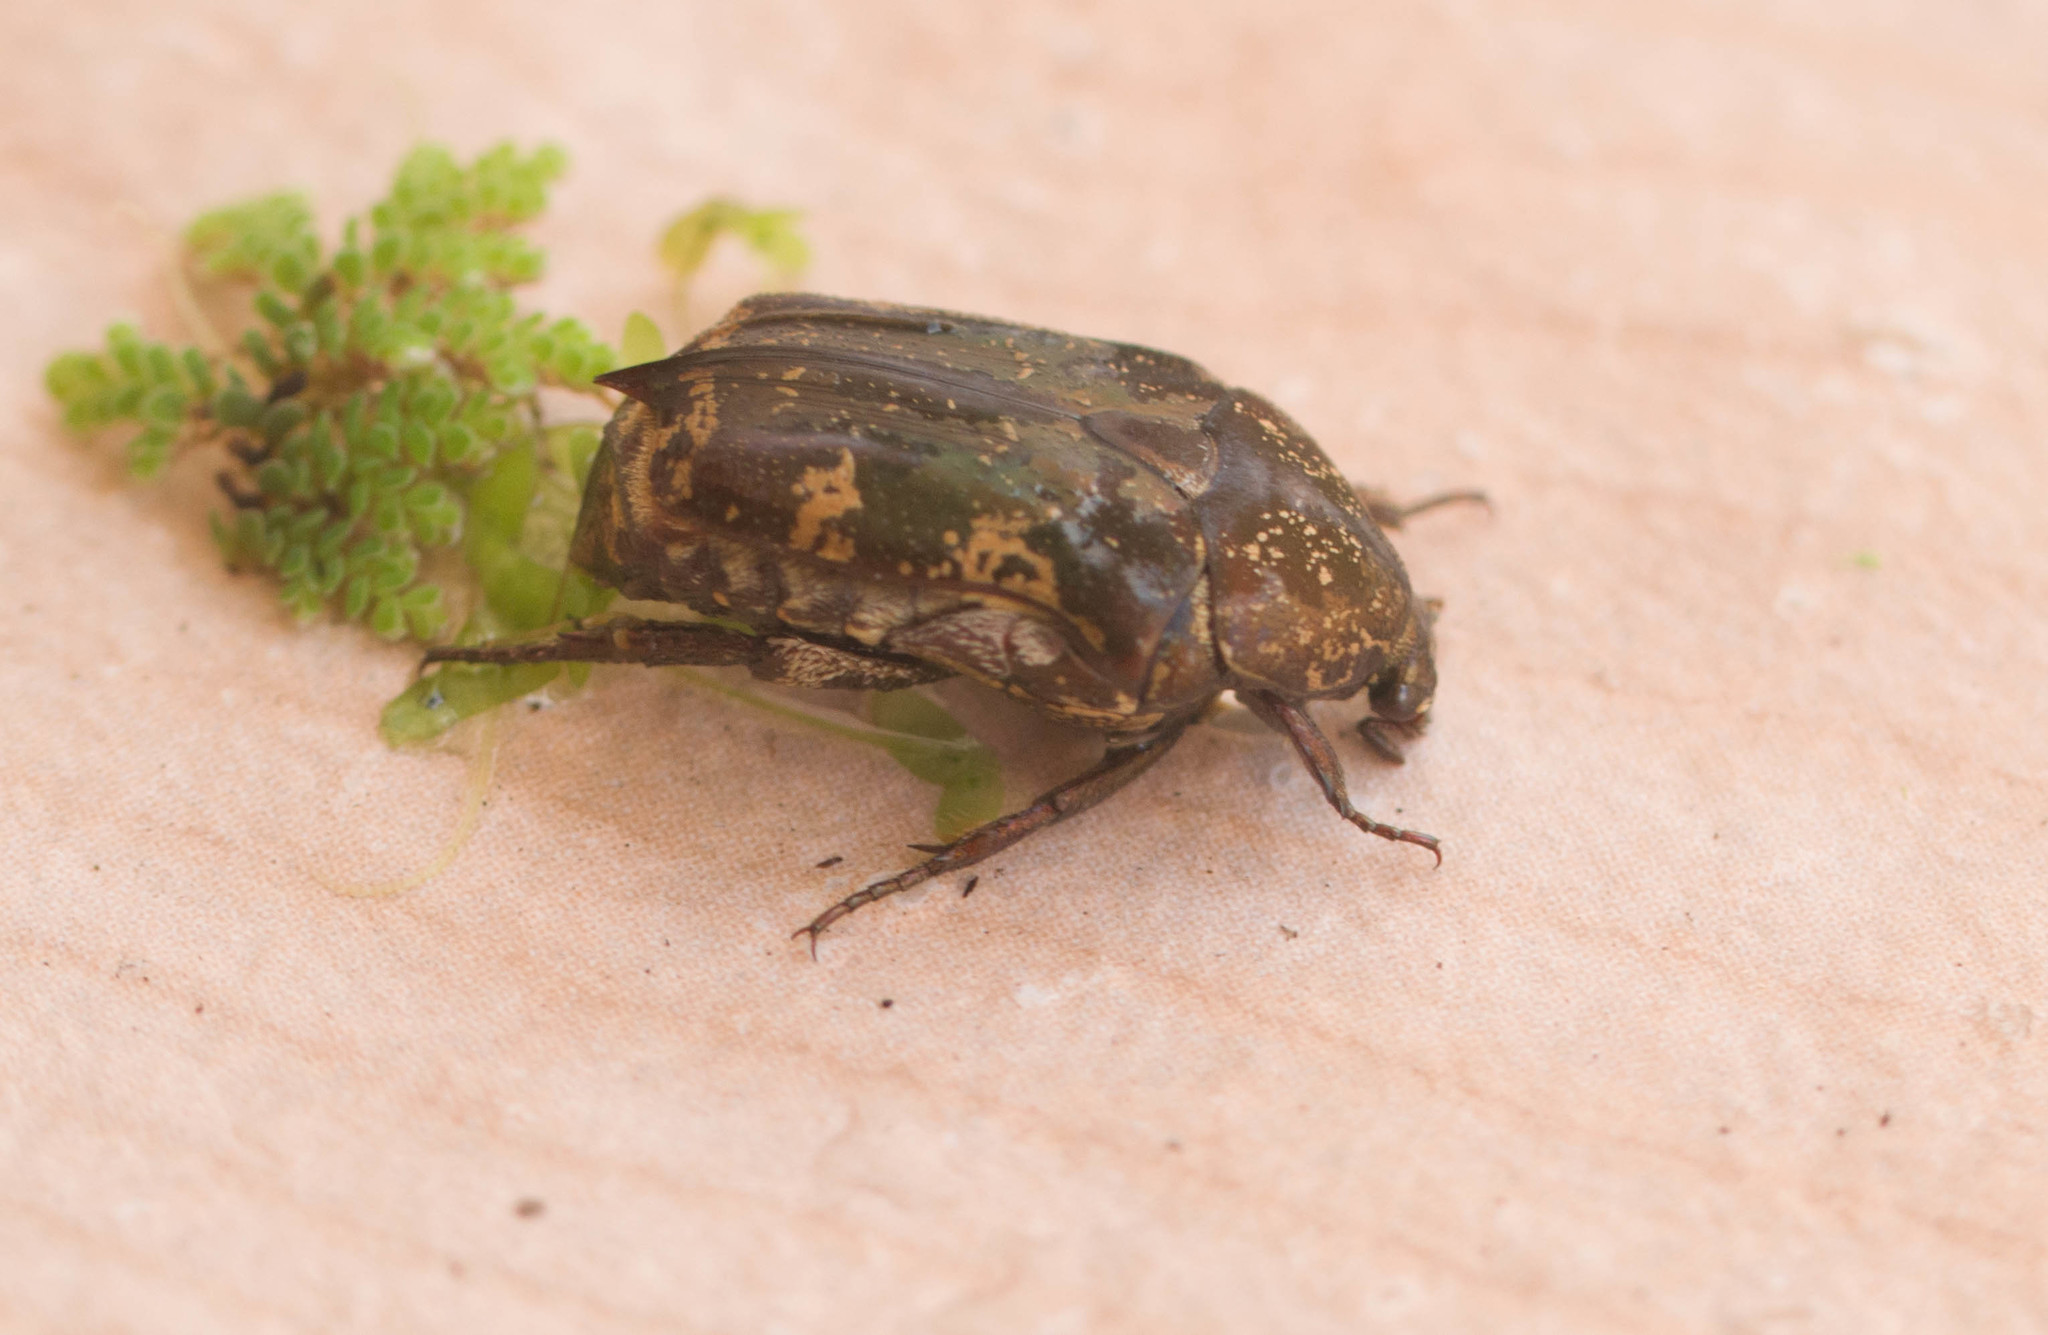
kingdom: Animalia
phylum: Arthropoda
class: Insecta
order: Coleoptera
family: Scarabaeidae
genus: Protaetia
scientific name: Protaetia fusca
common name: Mango flower beetle
